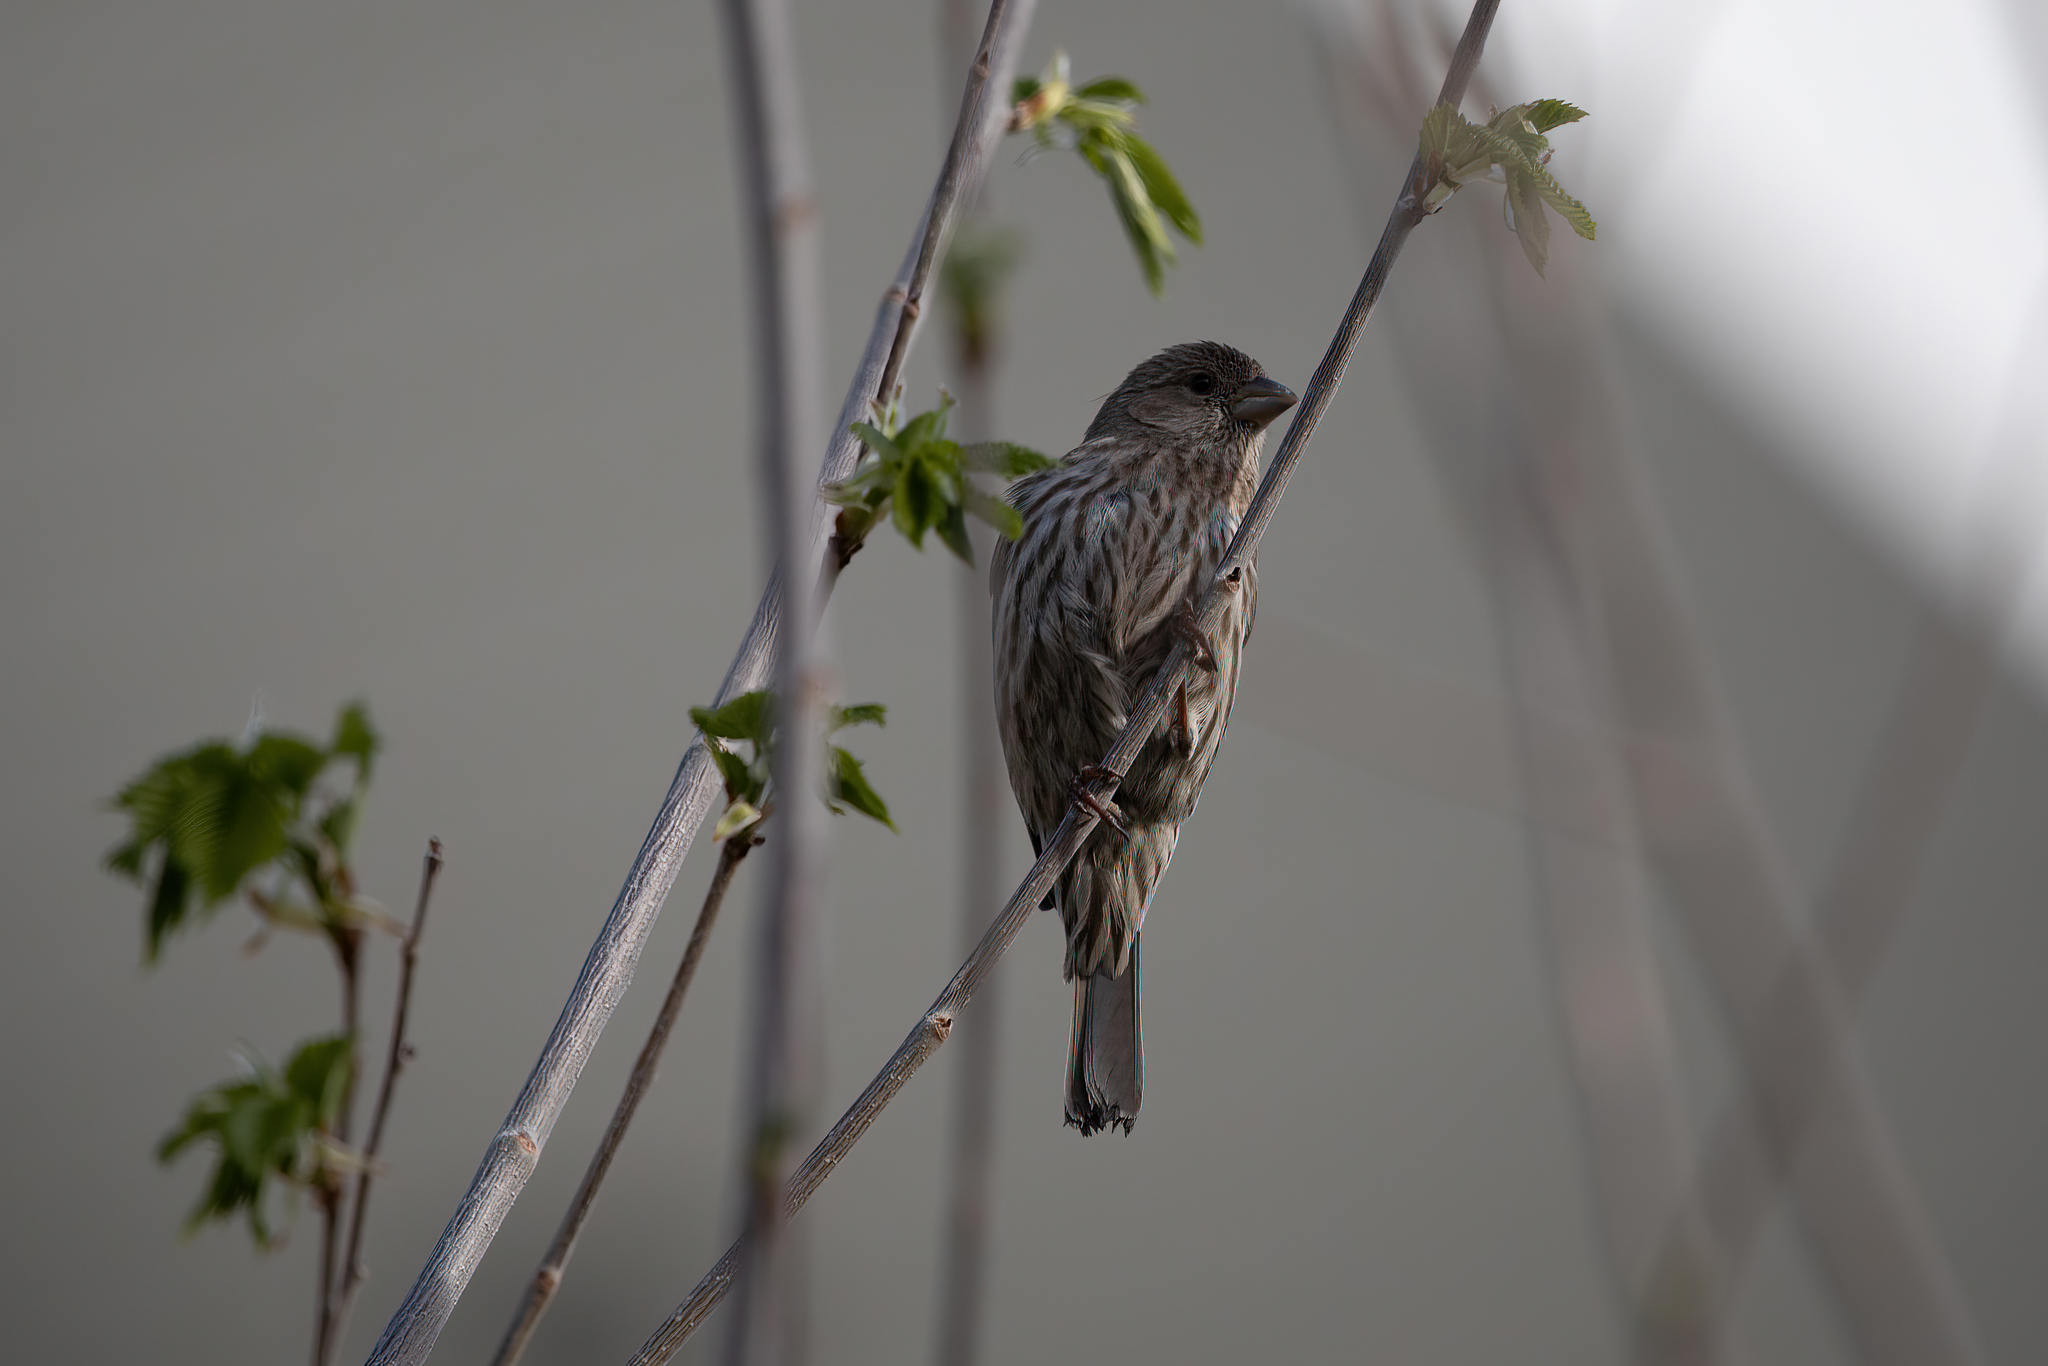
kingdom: Animalia
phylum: Chordata
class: Aves
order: Passeriformes
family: Fringillidae
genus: Haemorhous
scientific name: Haemorhous mexicanus
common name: House finch
